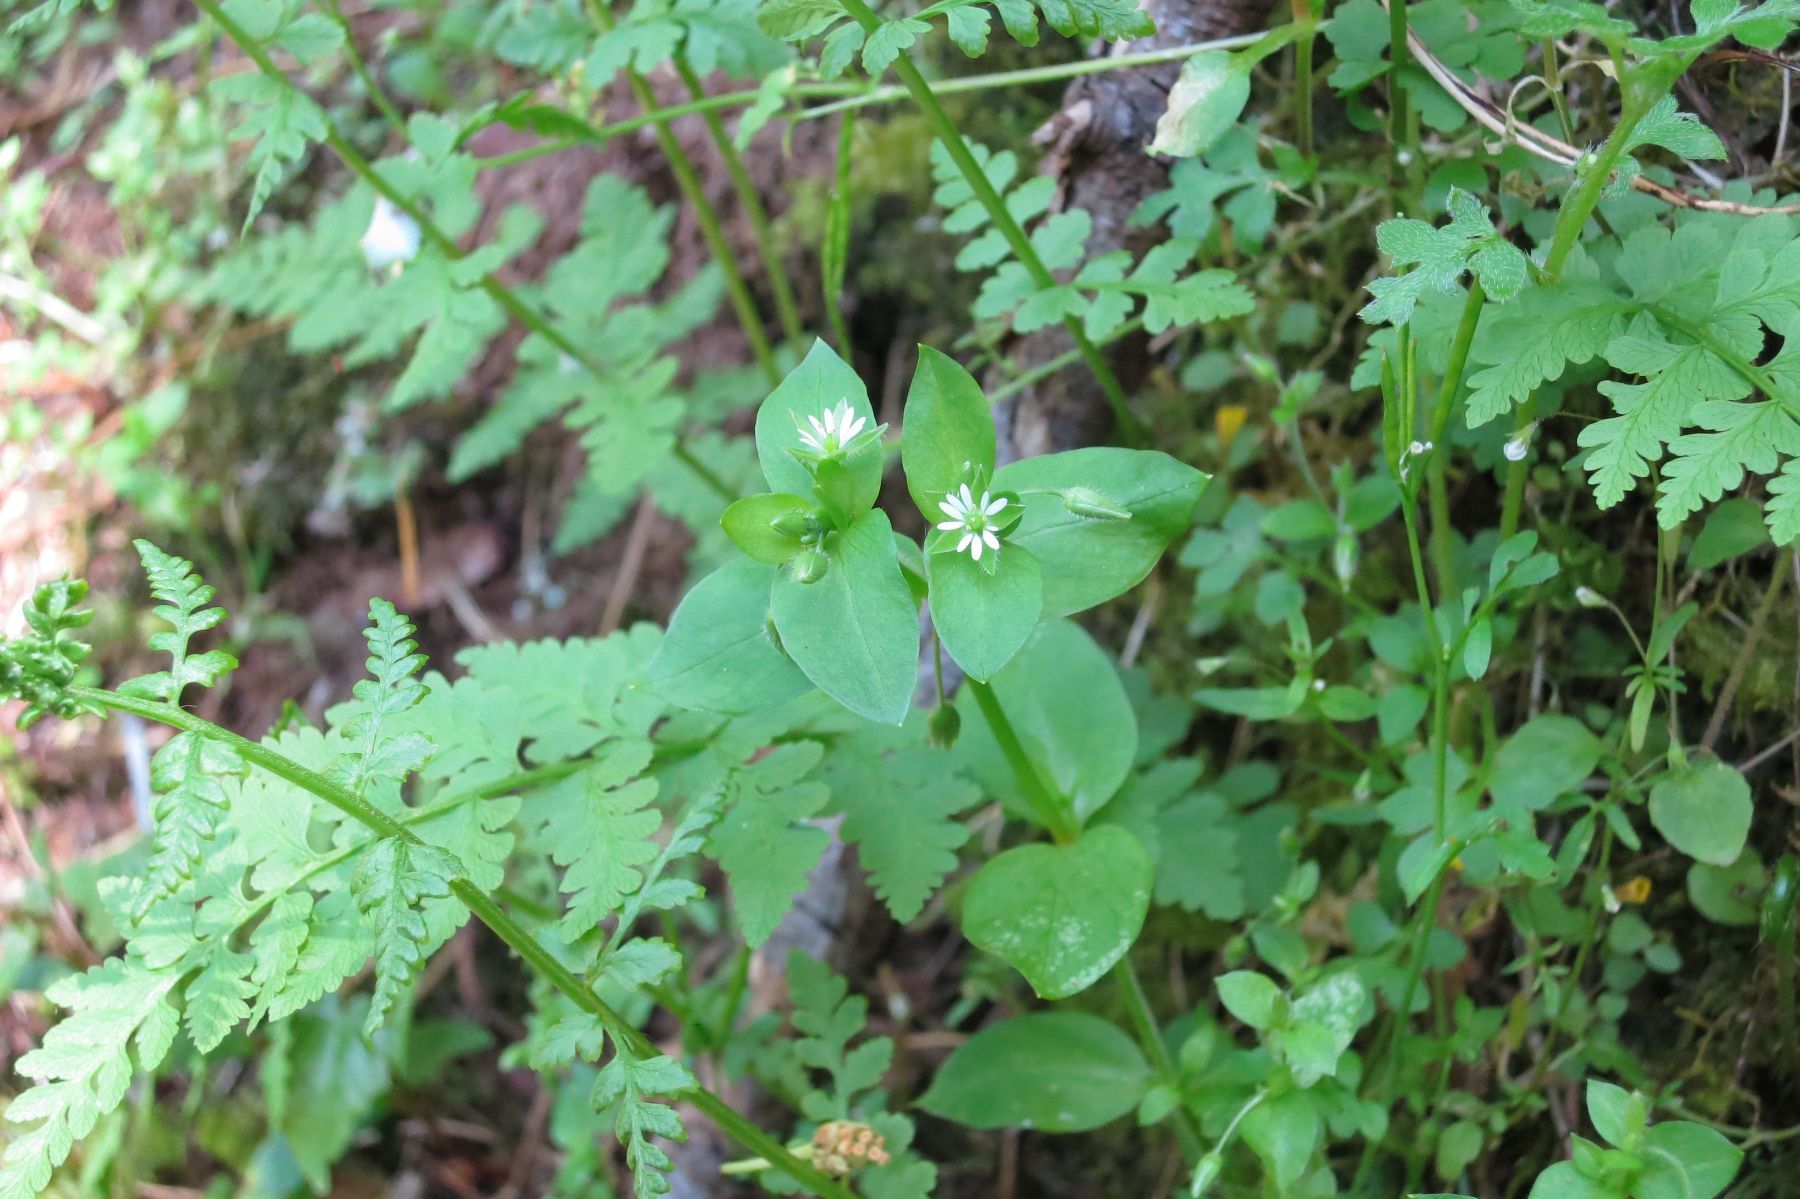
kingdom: Plantae
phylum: Tracheophyta
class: Magnoliopsida
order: Caryophyllales
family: Caryophyllaceae
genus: Stellaria
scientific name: Stellaria media
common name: Common chickweed
